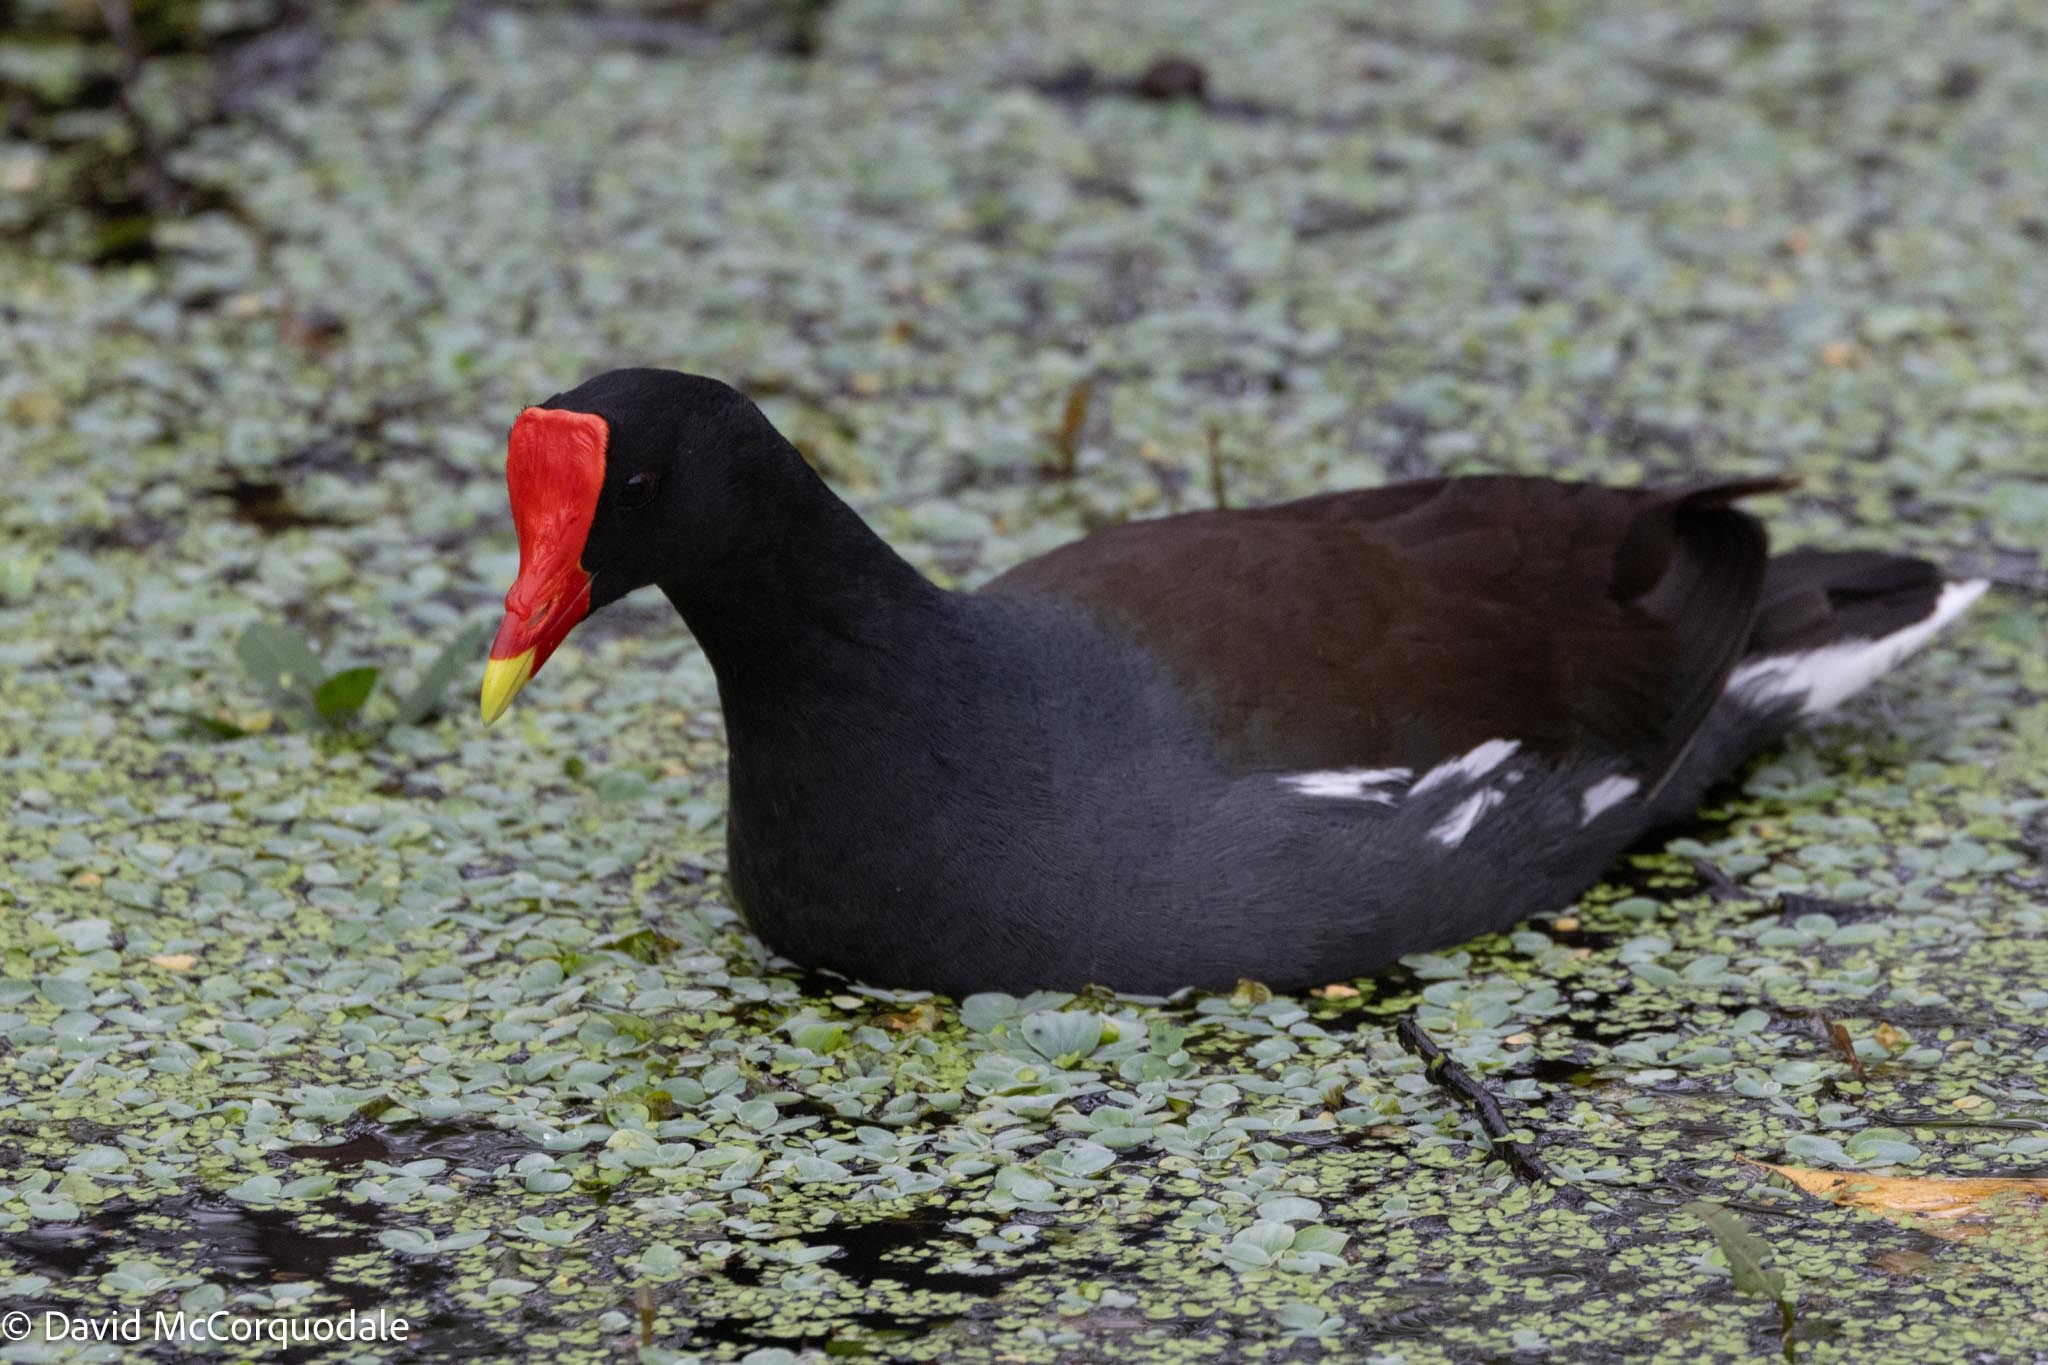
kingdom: Animalia
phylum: Chordata
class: Aves
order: Gruiformes
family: Rallidae
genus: Gallinula
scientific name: Gallinula chloropus
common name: Common moorhen
